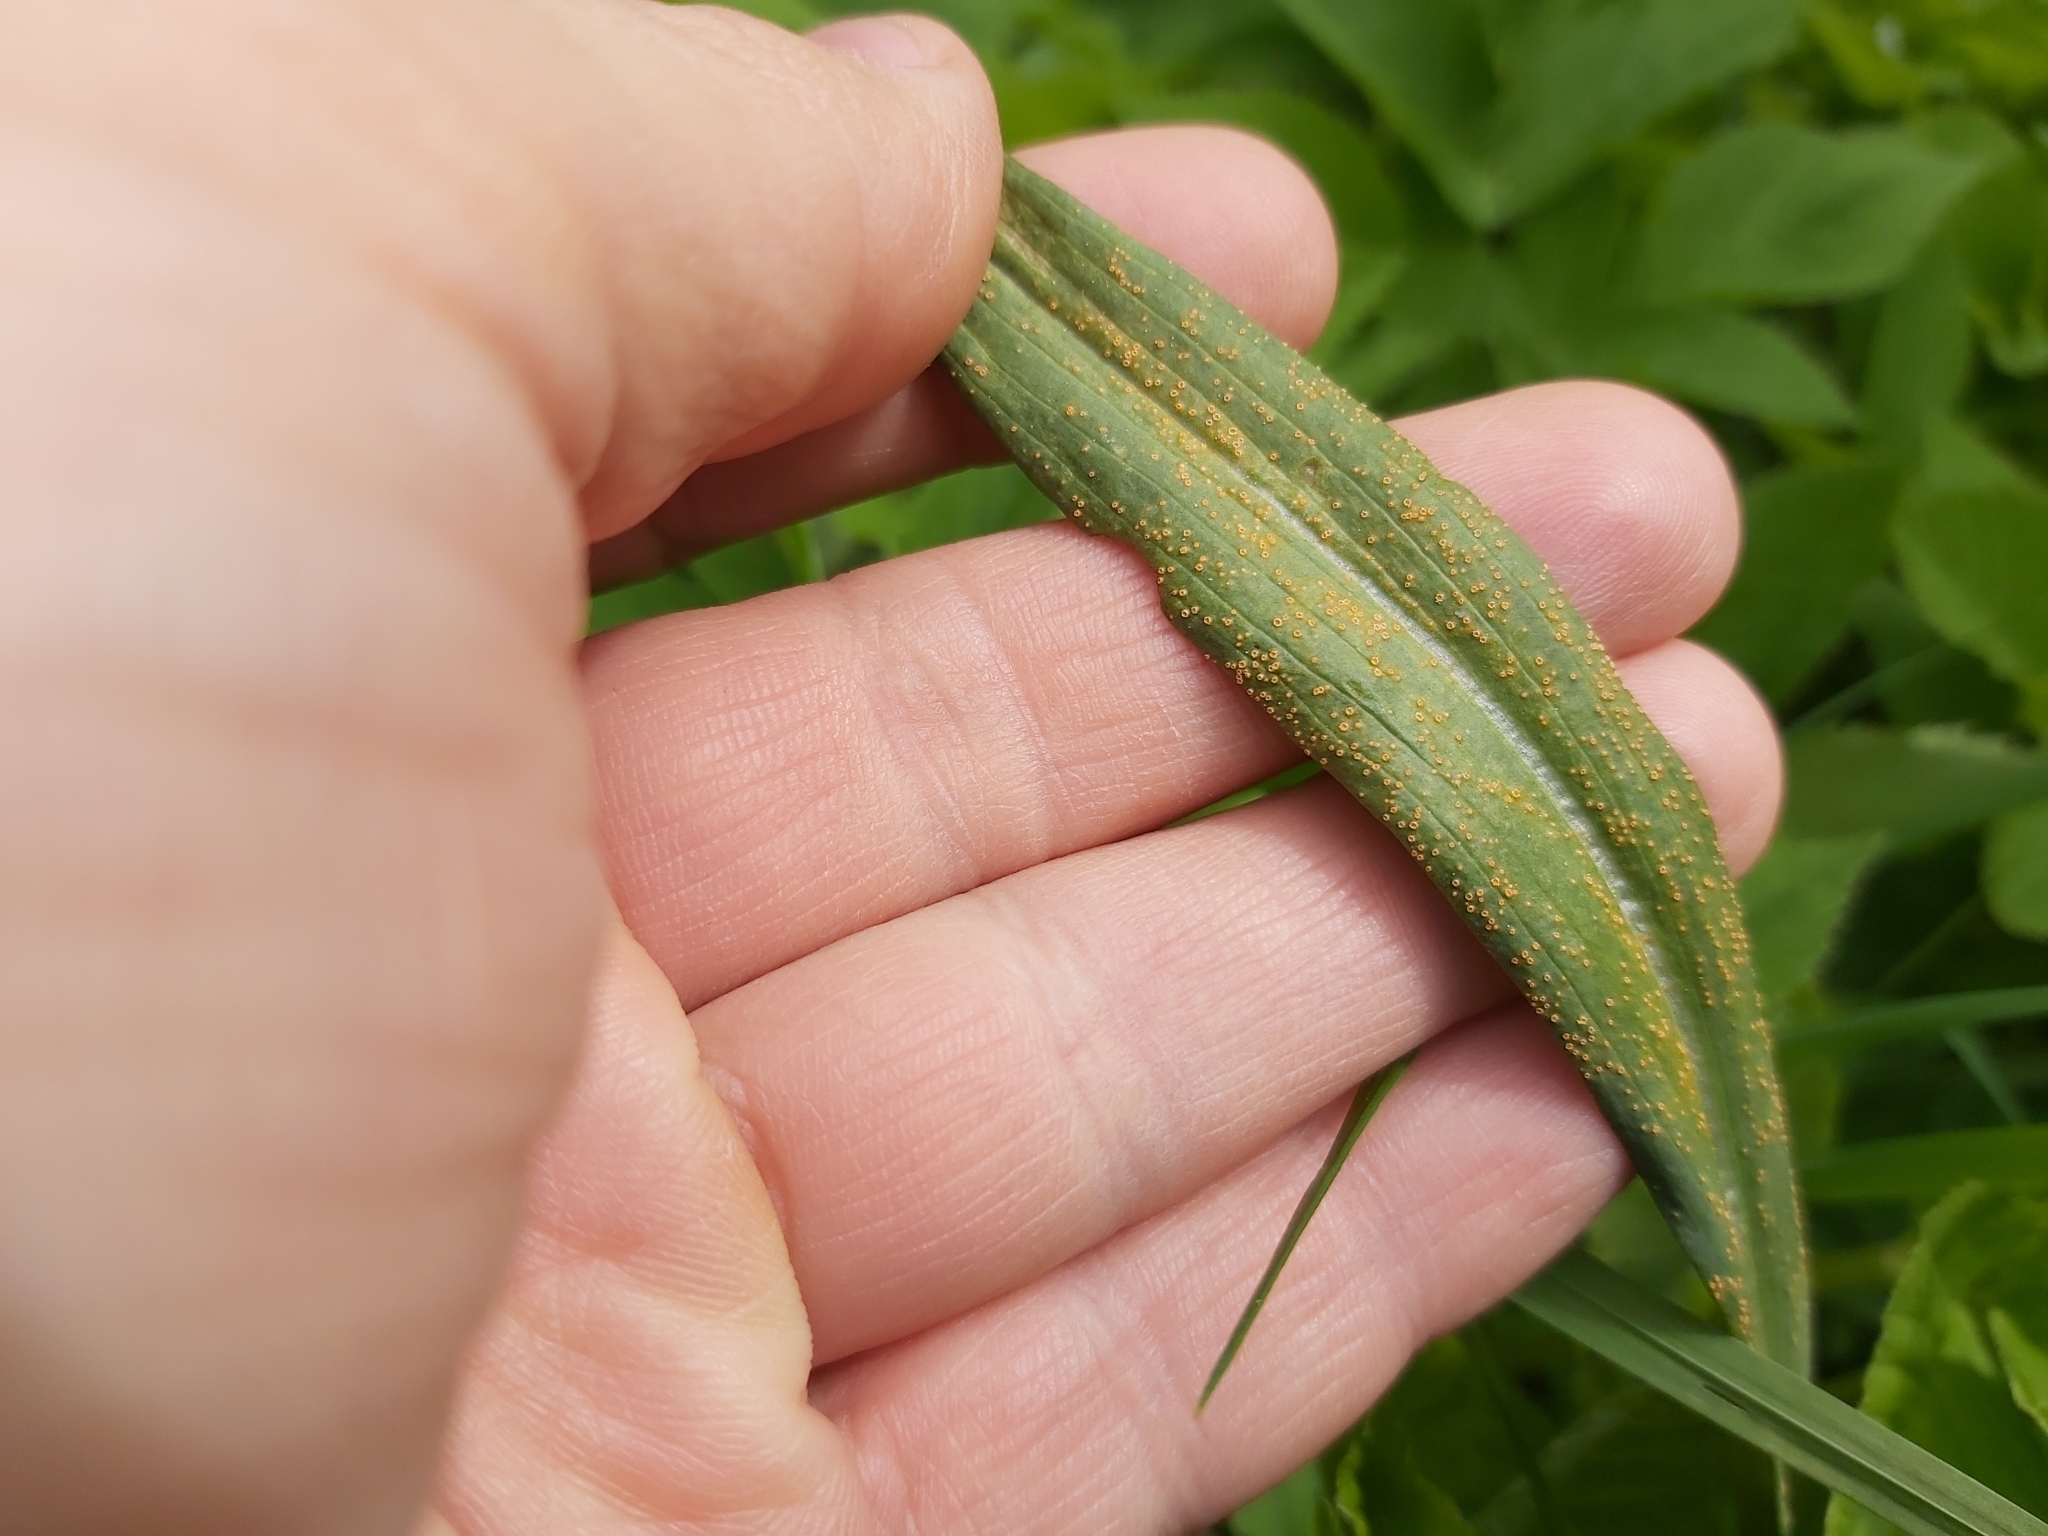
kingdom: Fungi
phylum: Basidiomycota
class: Pucciniomycetes
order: Pucciniales
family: Pucciniaceae
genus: Puccinia
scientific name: Puccinia hysterium
